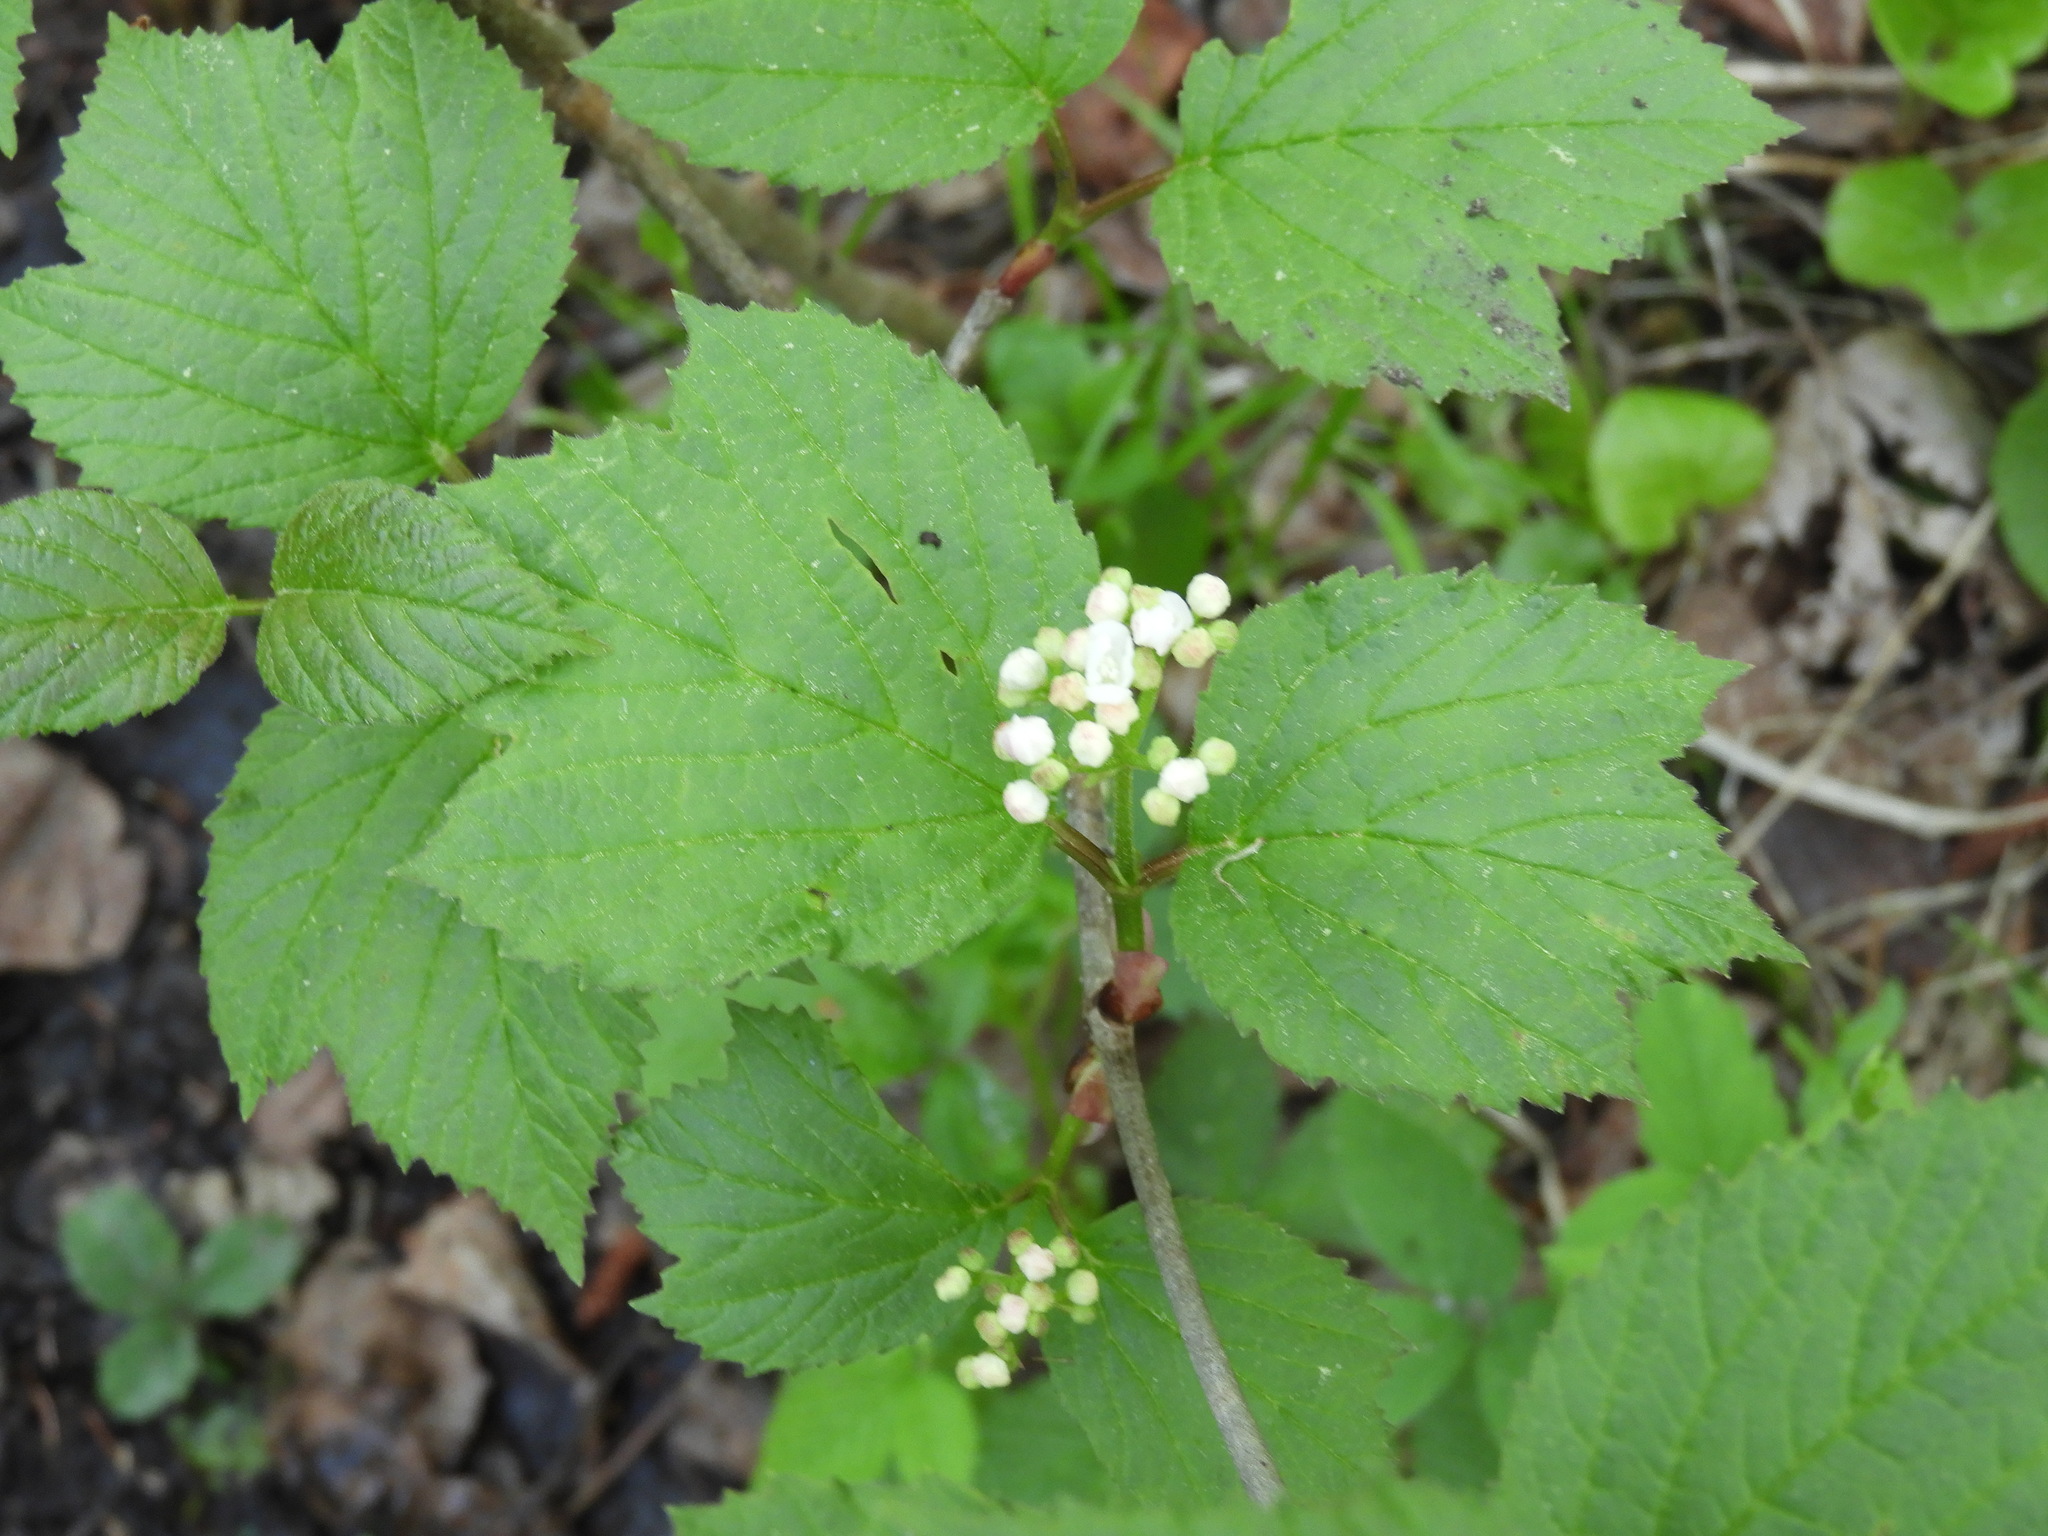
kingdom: Plantae
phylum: Tracheophyta
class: Magnoliopsida
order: Dipsacales
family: Viburnaceae
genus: Viburnum
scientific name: Viburnum edule
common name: Mooseberry
